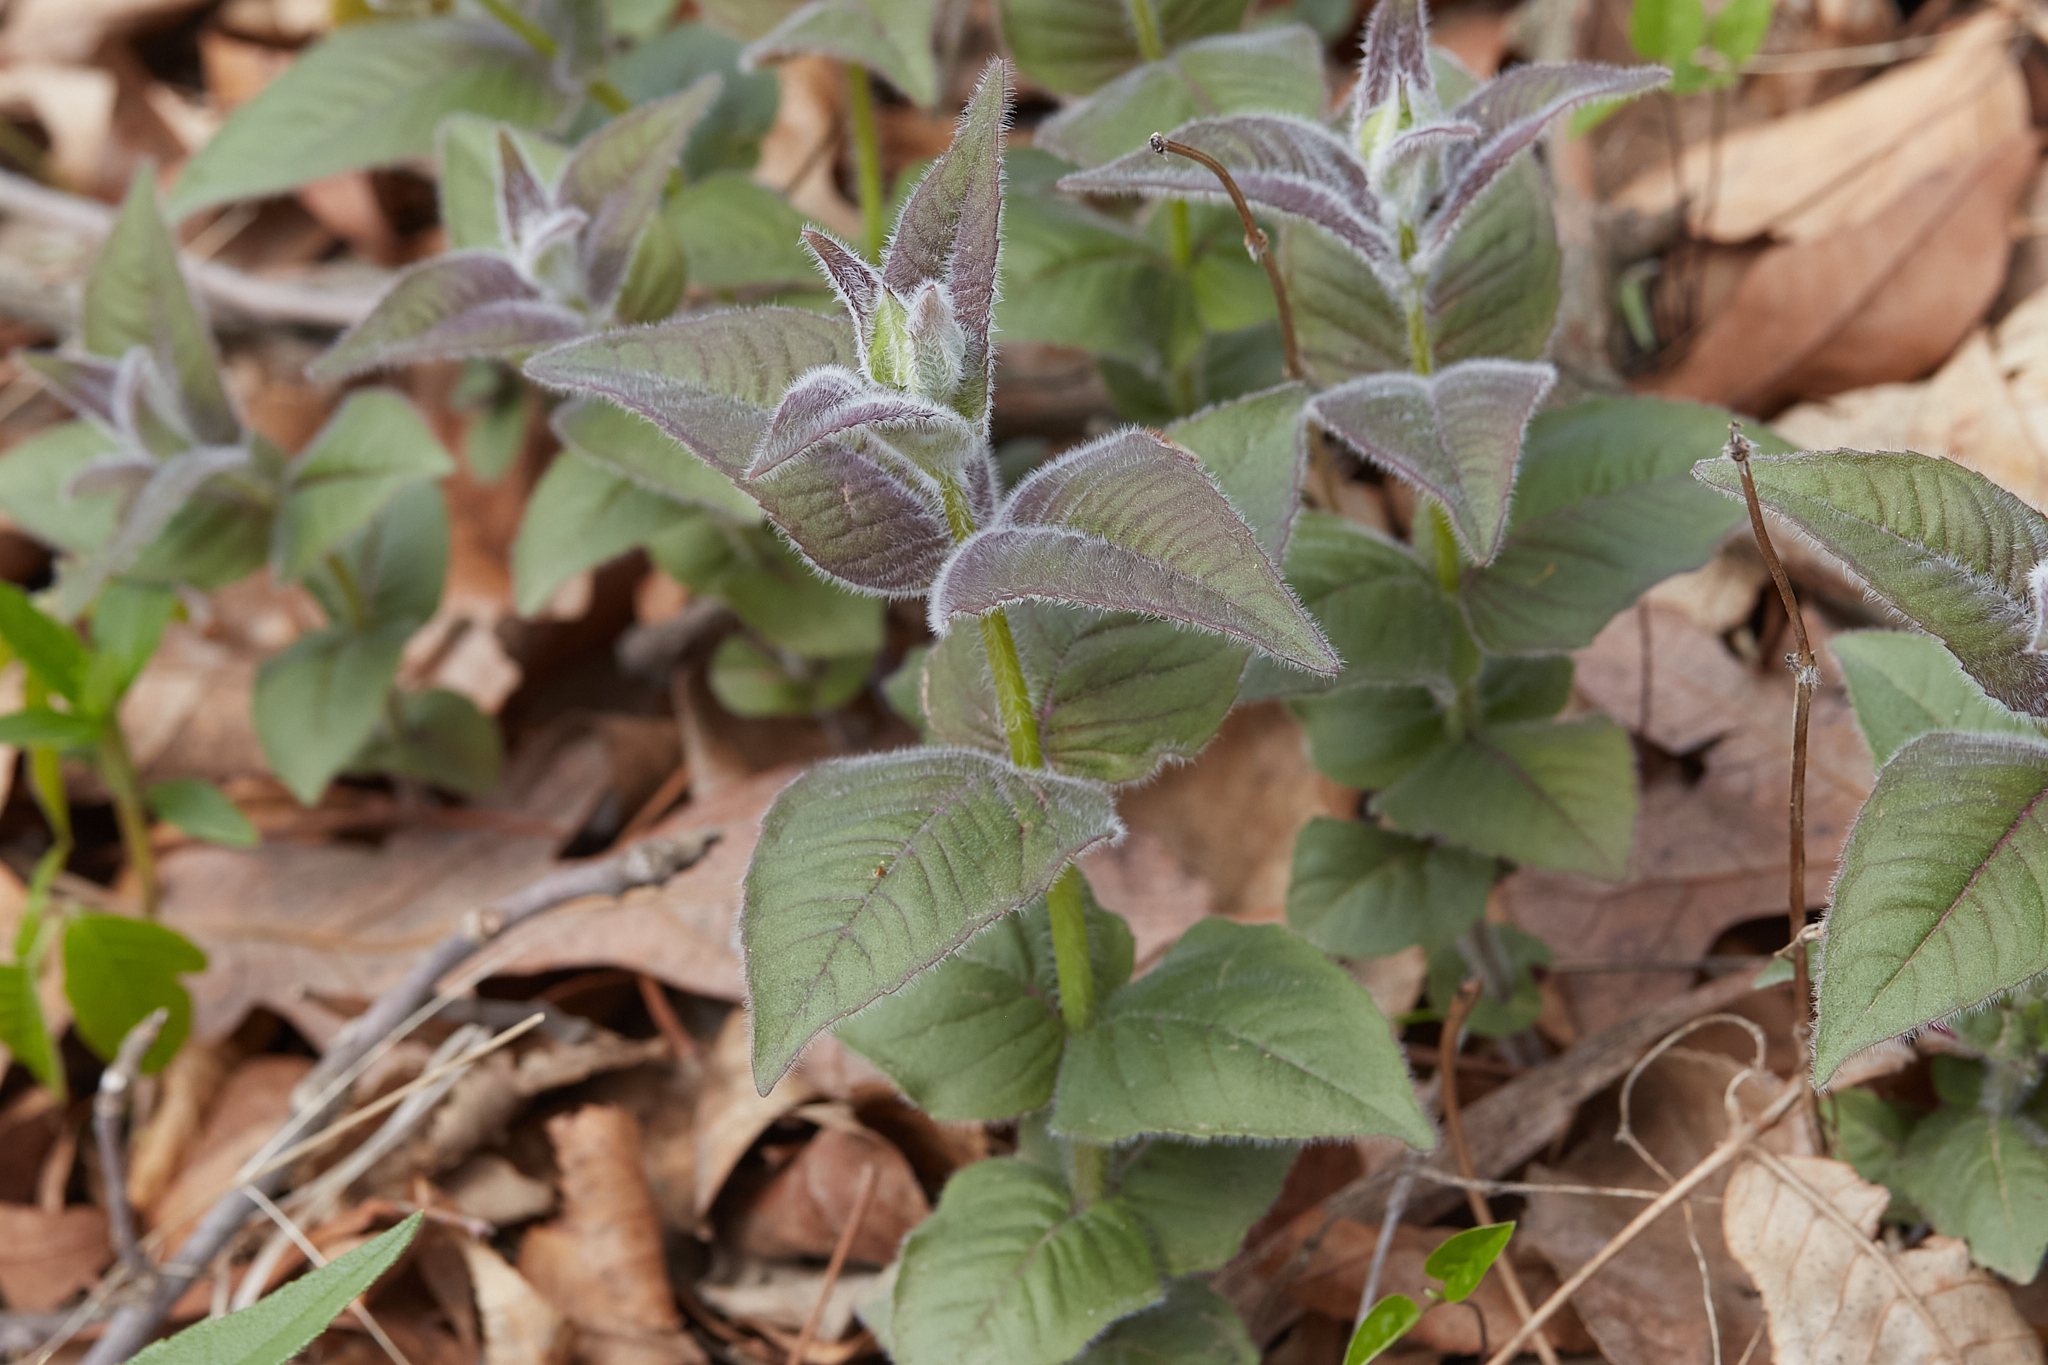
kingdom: Plantae
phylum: Tracheophyta
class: Magnoliopsida
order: Lamiales
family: Lamiaceae
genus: Monarda
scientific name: Monarda bradburiana
